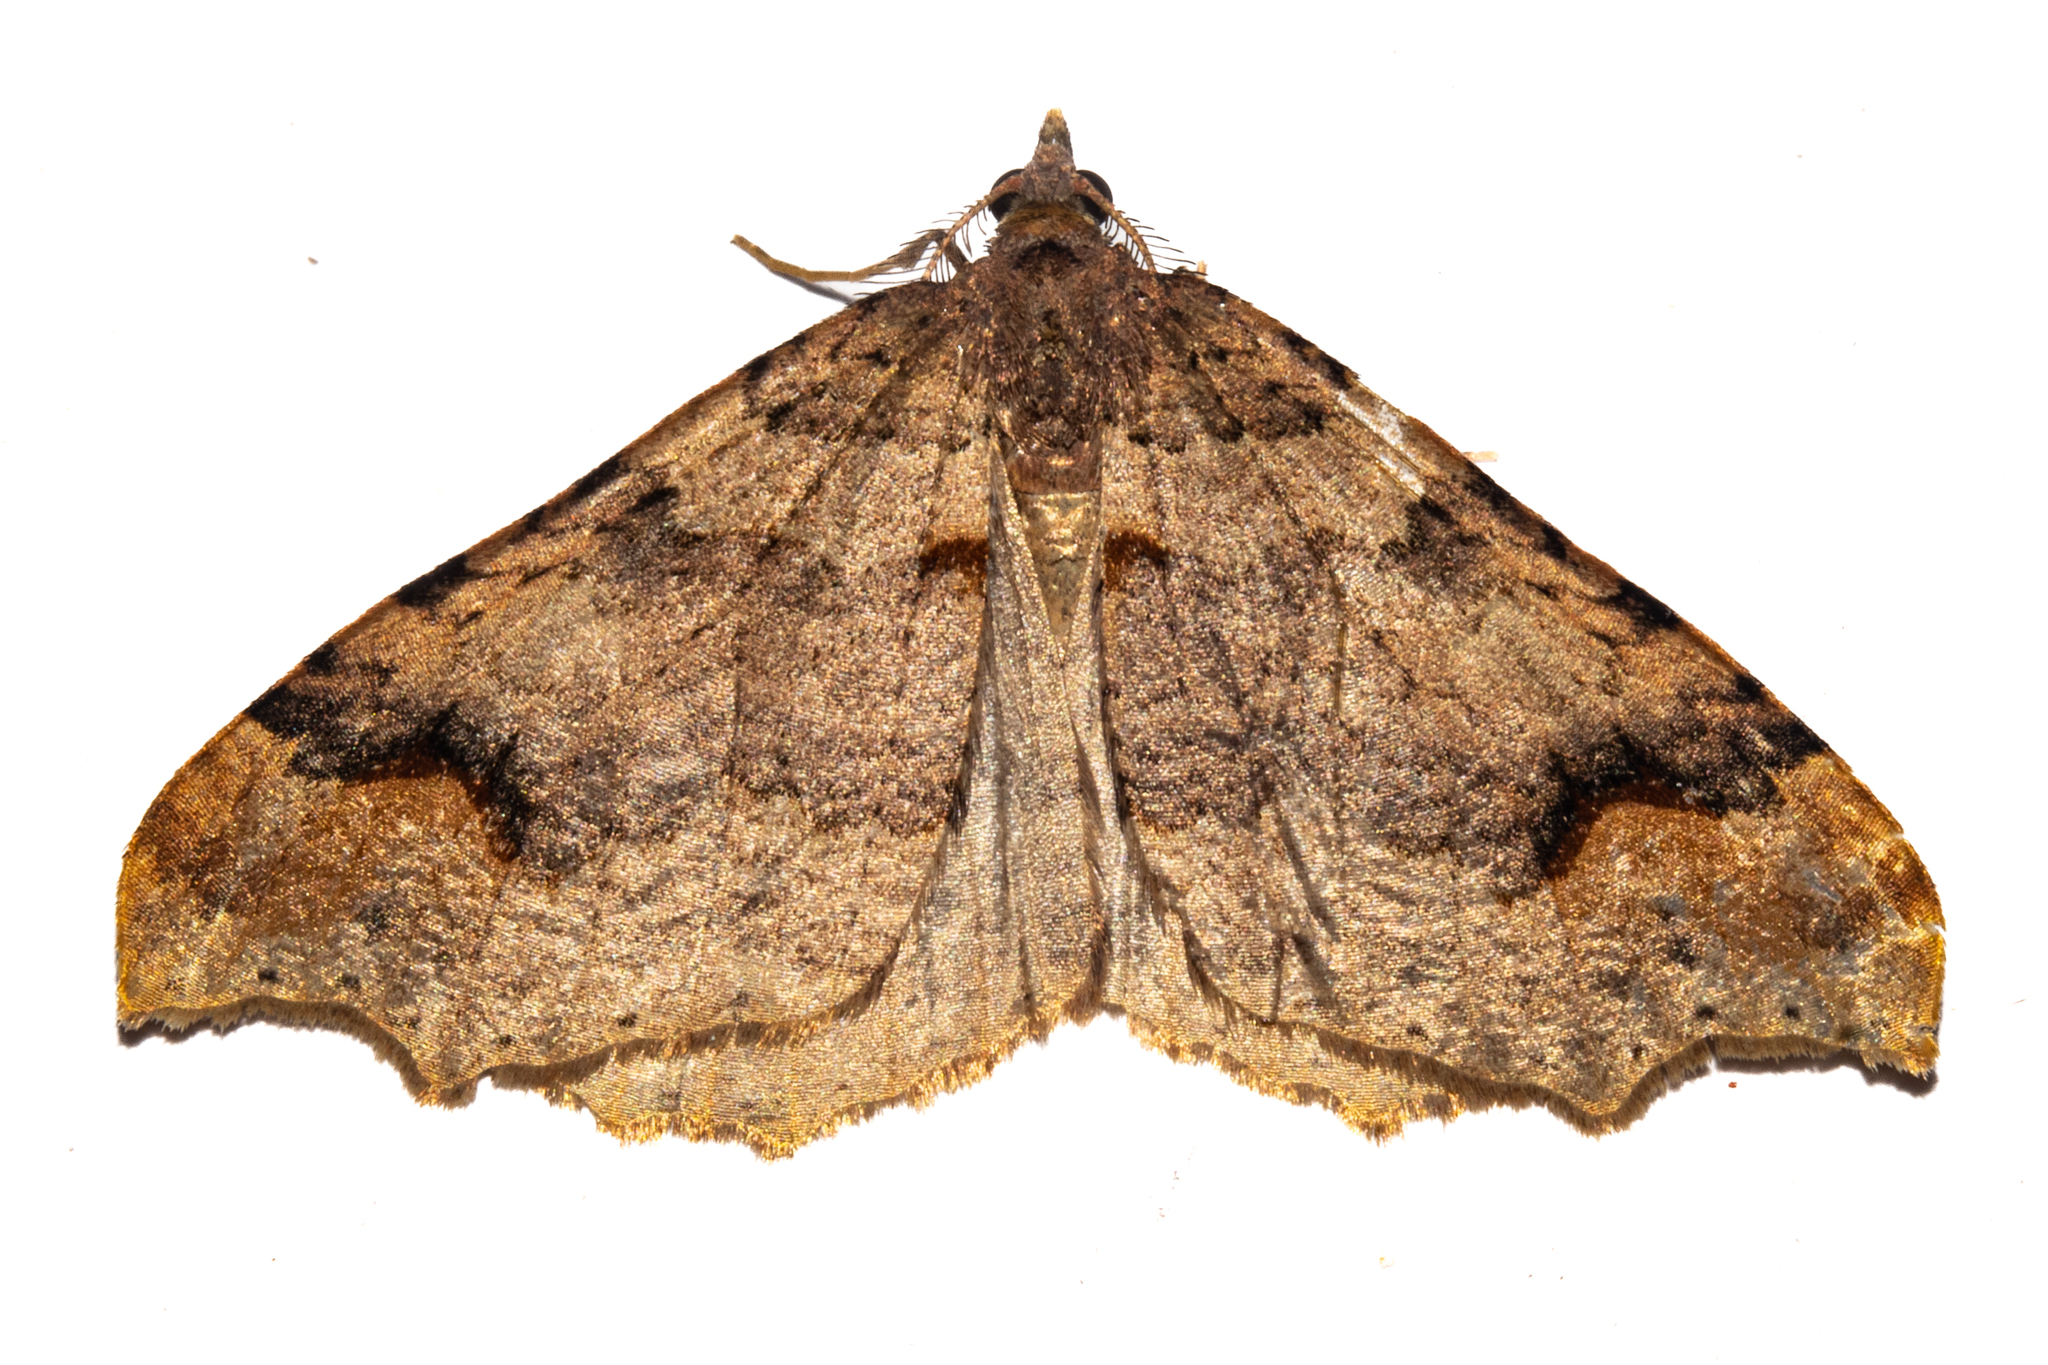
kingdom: Animalia
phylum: Arthropoda
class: Insecta
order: Lepidoptera
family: Geometridae
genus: Austrocidaria
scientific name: Austrocidaria parora
